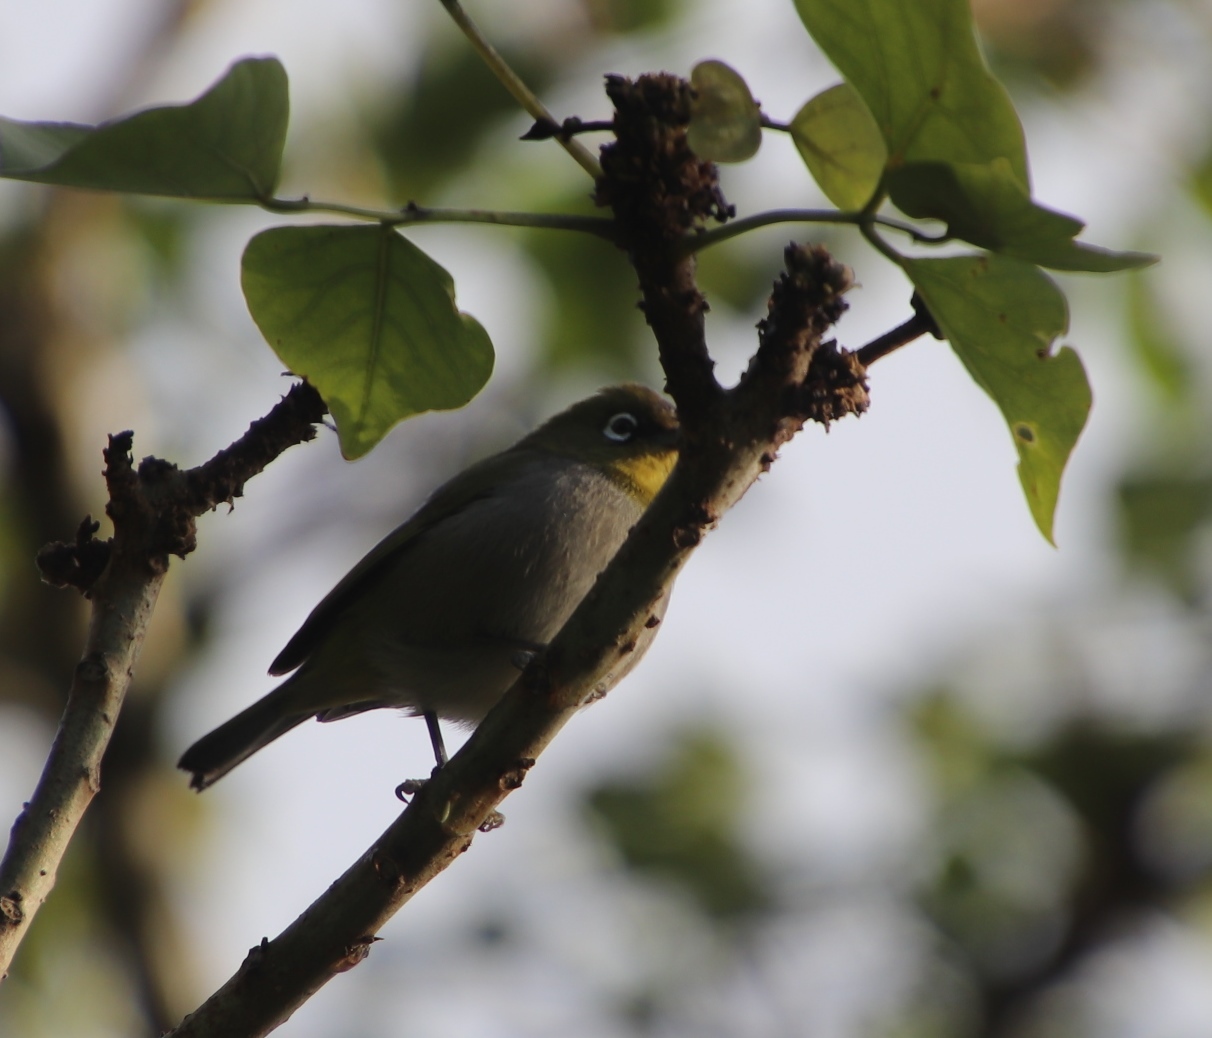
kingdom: Animalia
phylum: Chordata
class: Aves
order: Passeriformes
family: Zosteropidae
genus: Zosterops
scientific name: Zosterops virens
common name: Cape white-eye
